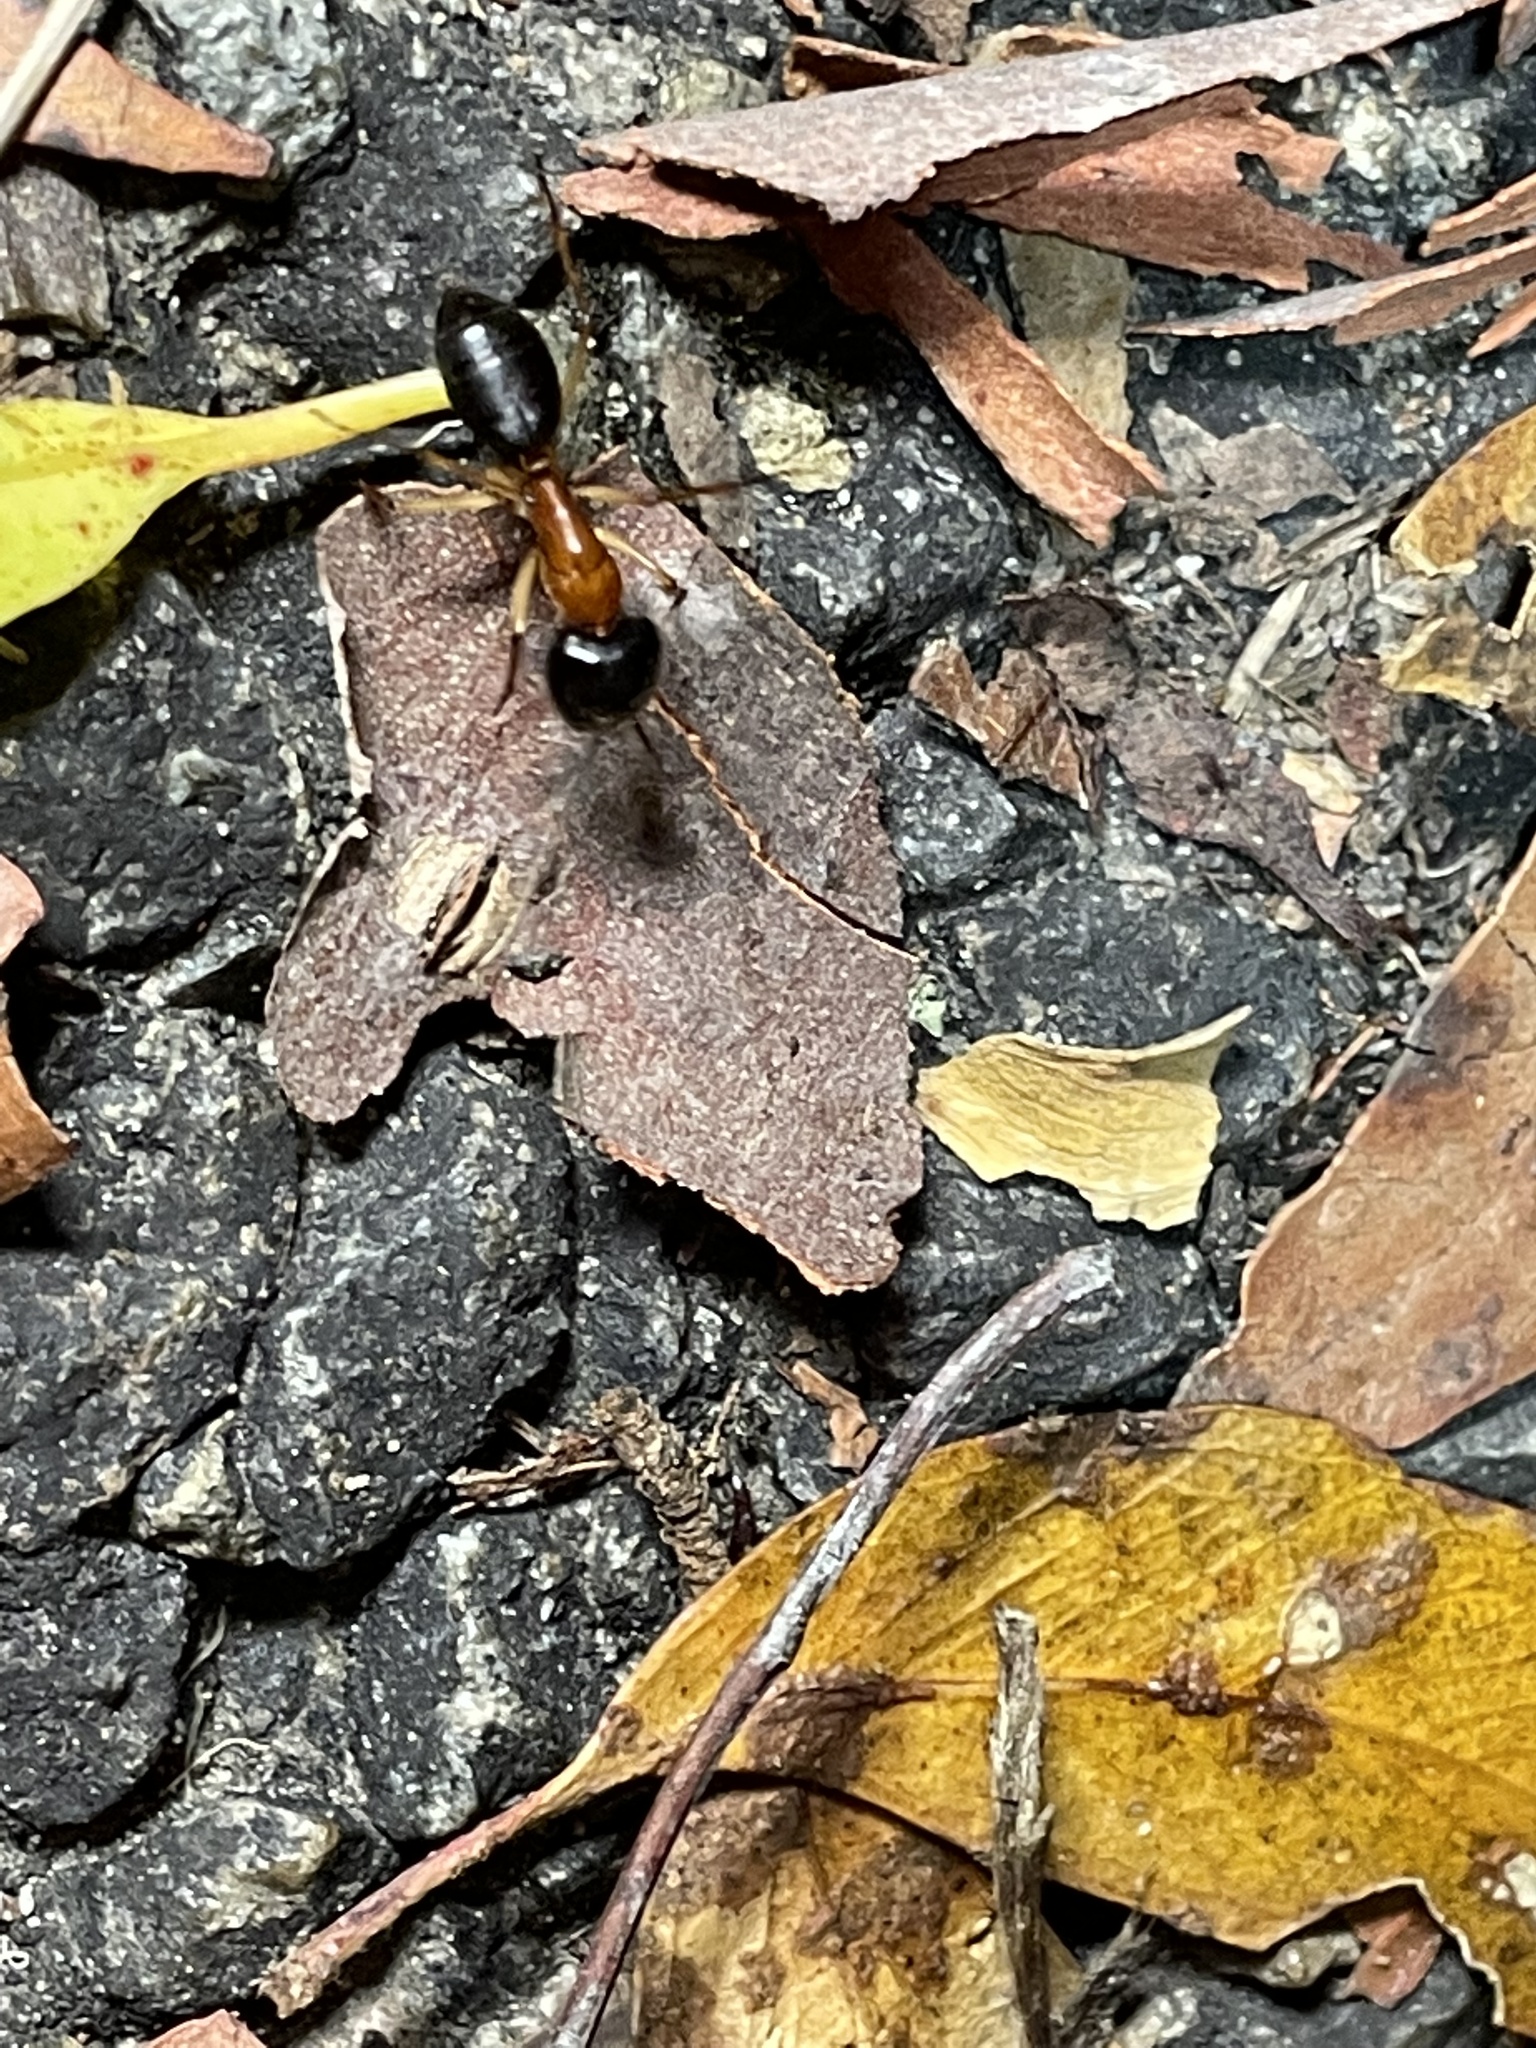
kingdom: Animalia
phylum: Arthropoda
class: Insecta
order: Hymenoptera
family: Formicidae
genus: Camponotus
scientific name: Camponotus nigriceps
